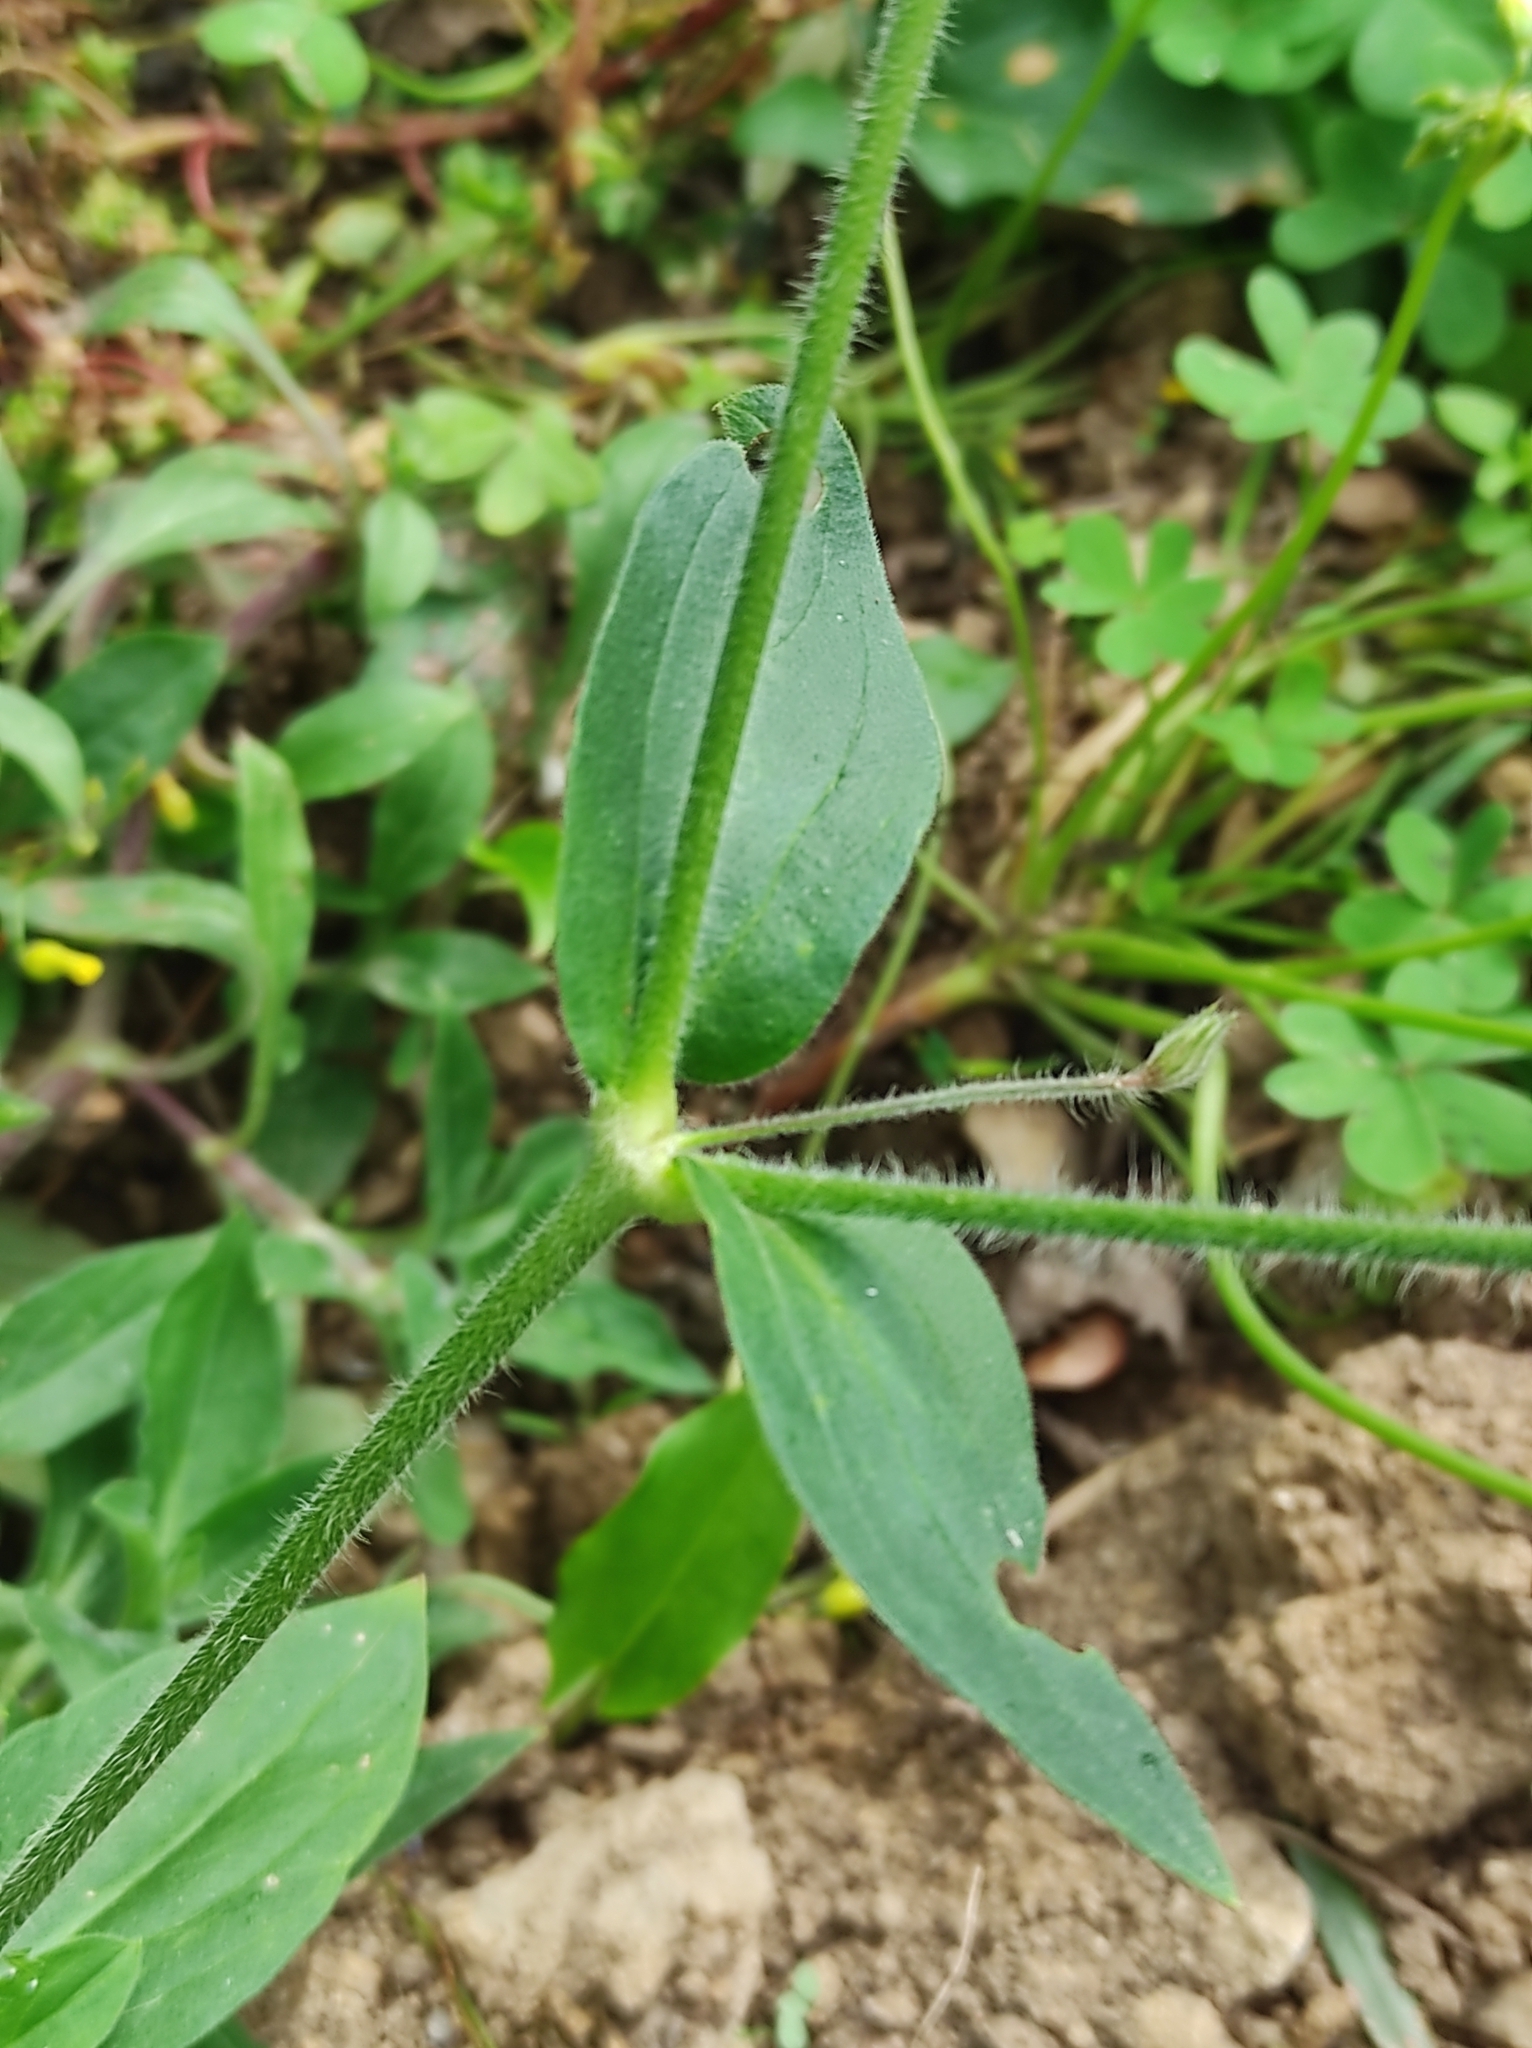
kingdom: Plantae
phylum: Tracheophyta
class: Magnoliopsida
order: Caryophyllales
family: Caryophyllaceae
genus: Silene
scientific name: Silene latifolia
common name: White campion
